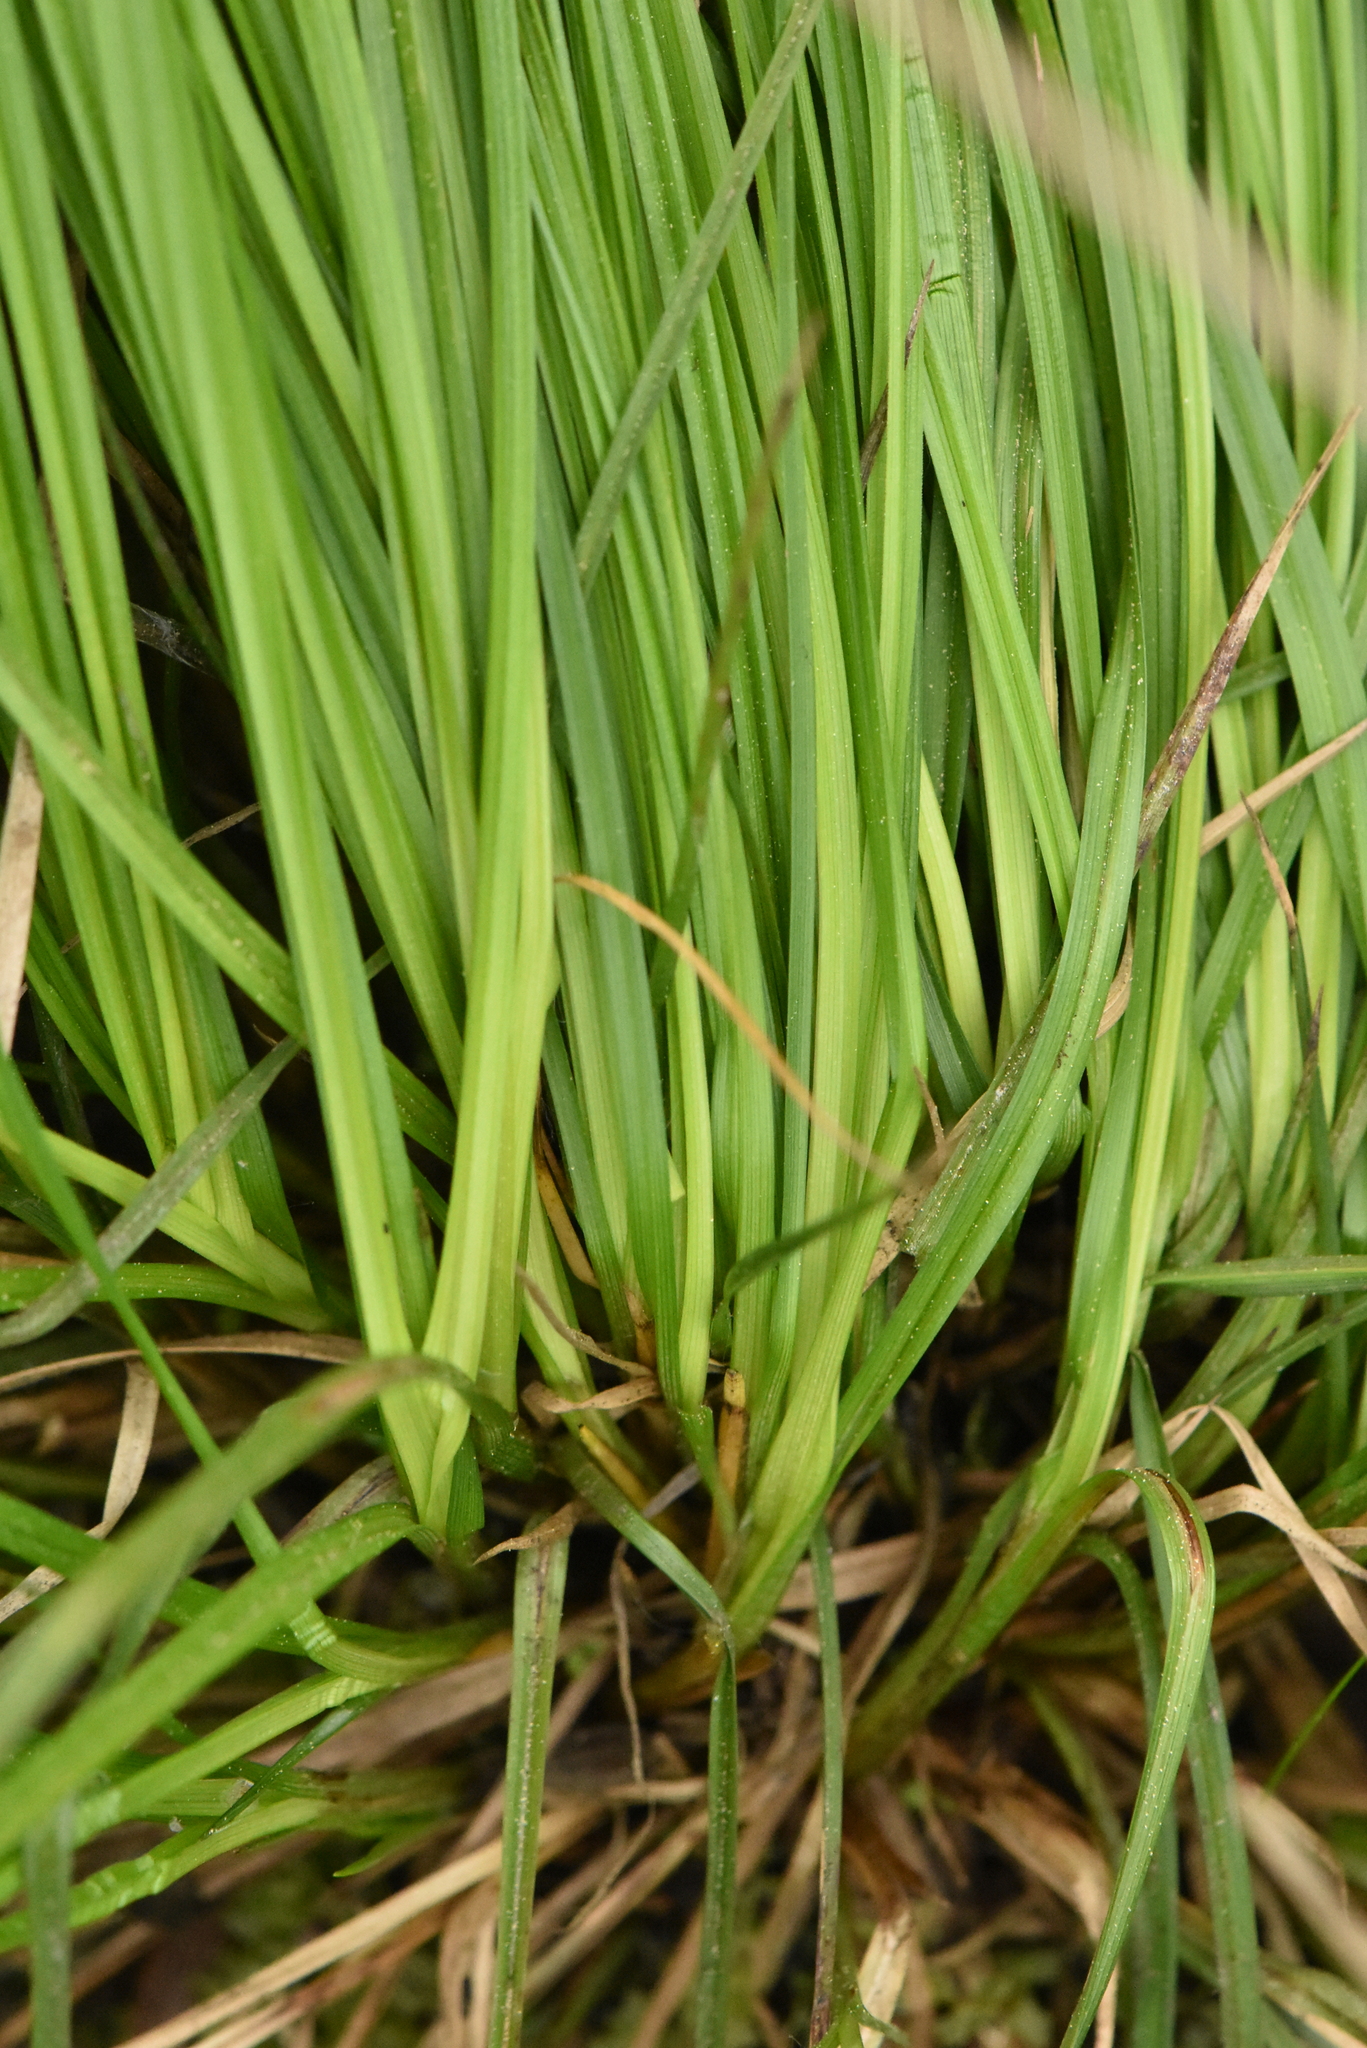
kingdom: Plantae
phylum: Tracheophyta
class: Liliopsida
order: Poales
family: Cyperaceae
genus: Carex
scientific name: Carex elongata
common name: Elongated sedge
